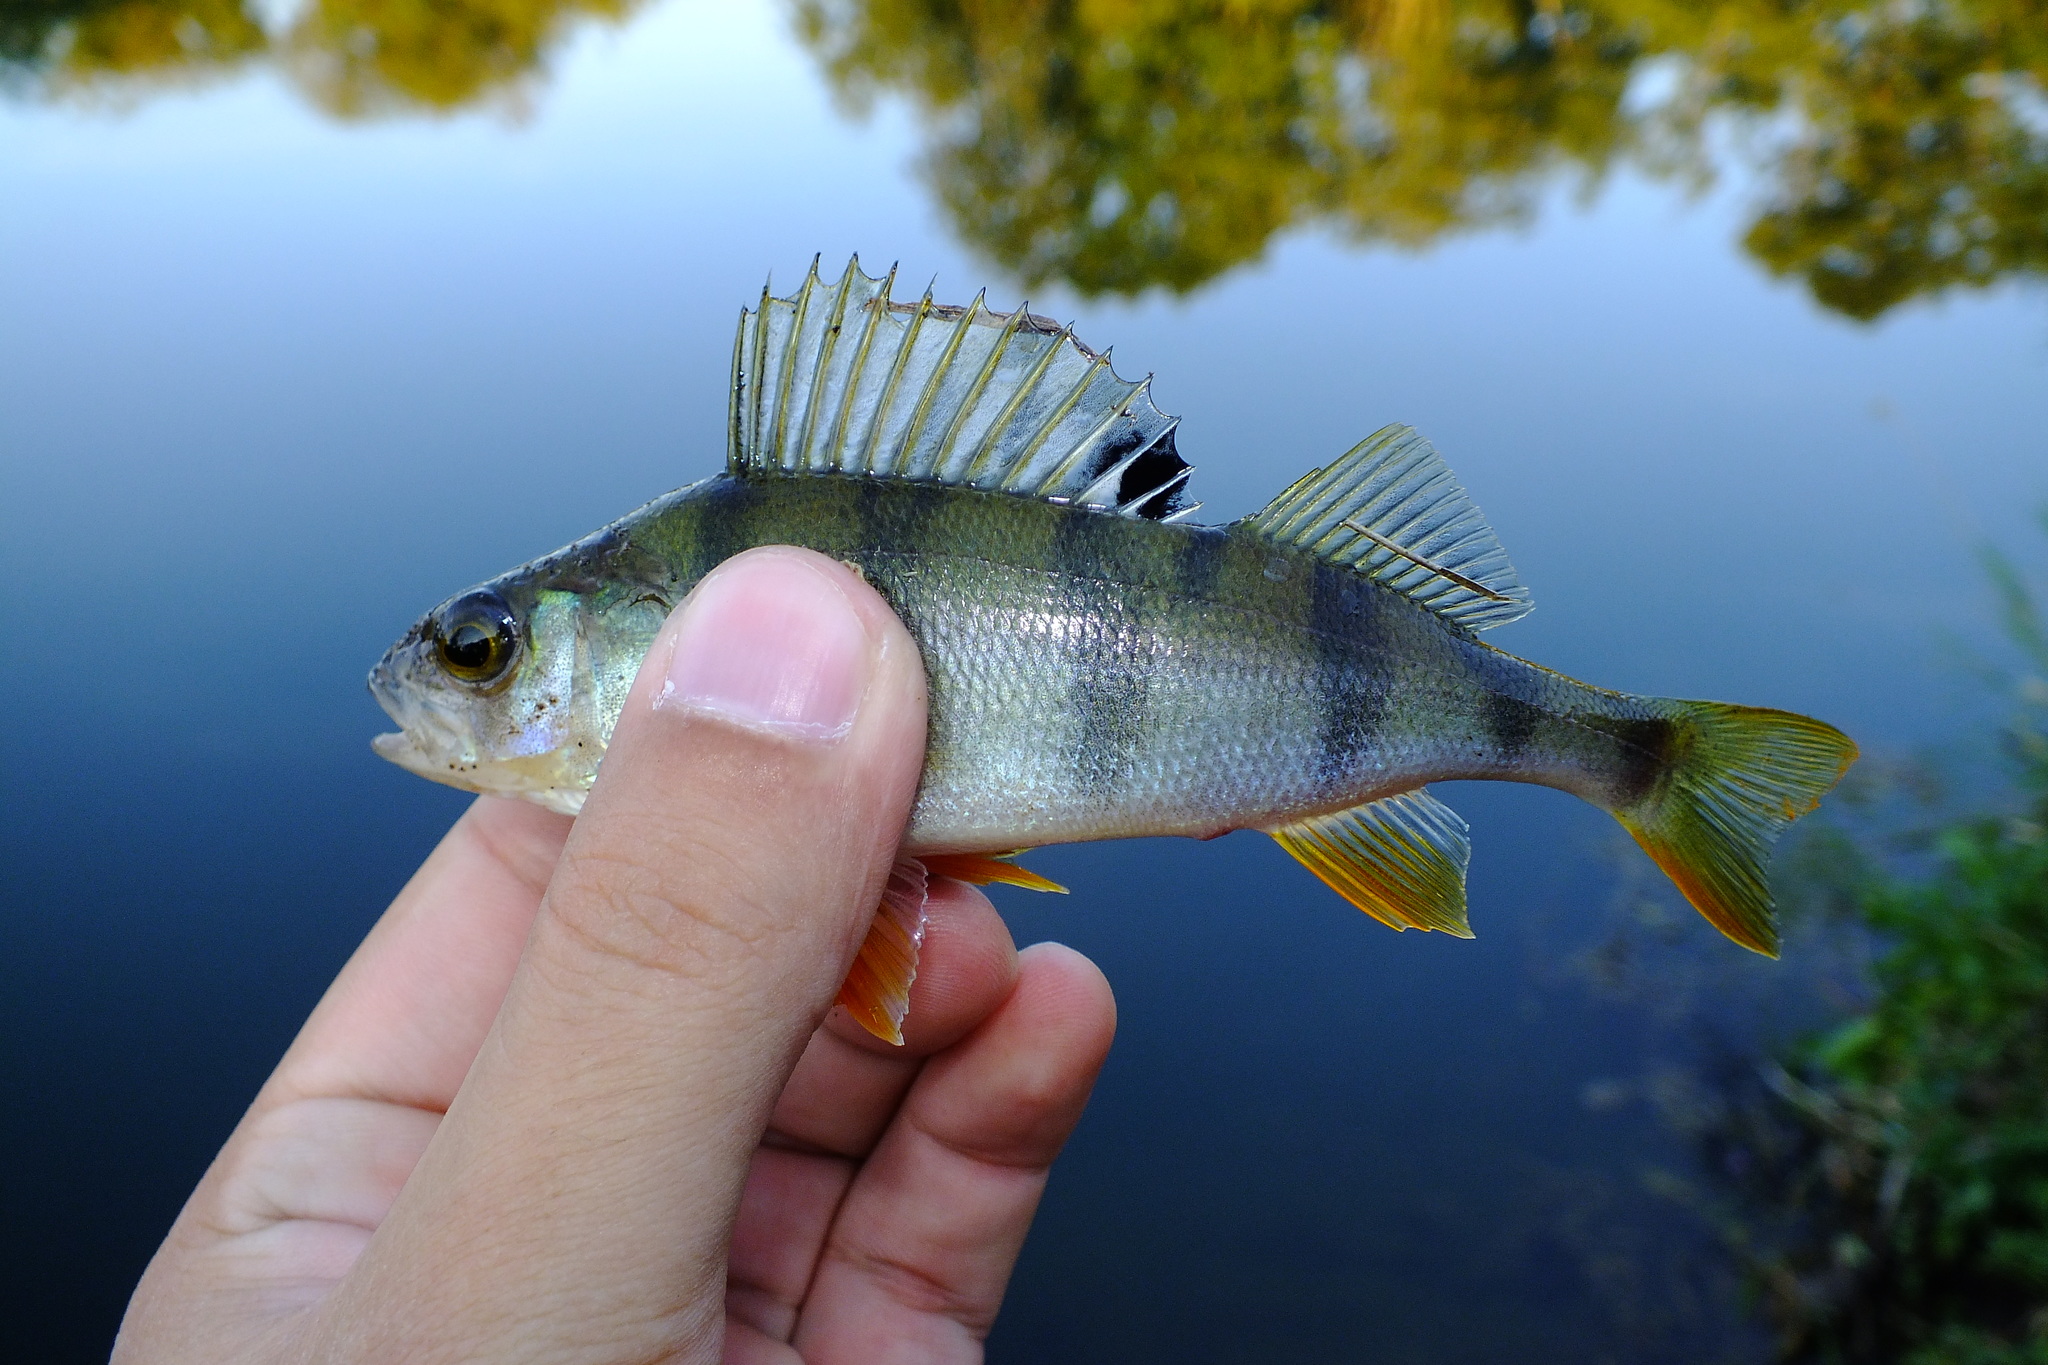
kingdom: Animalia
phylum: Chordata
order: Perciformes
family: Percidae
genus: Perca
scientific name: Perca fluviatilis
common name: Perch
